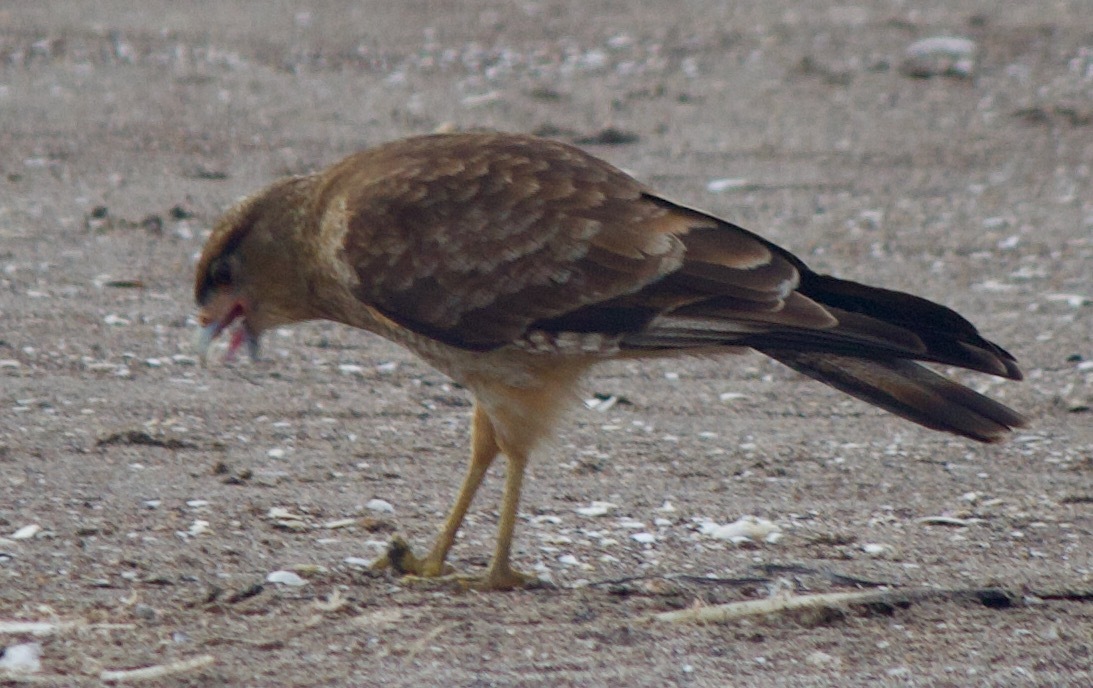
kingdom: Animalia
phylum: Chordata
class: Aves
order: Falconiformes
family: Falconidae
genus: Daptrius
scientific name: Daptrius
